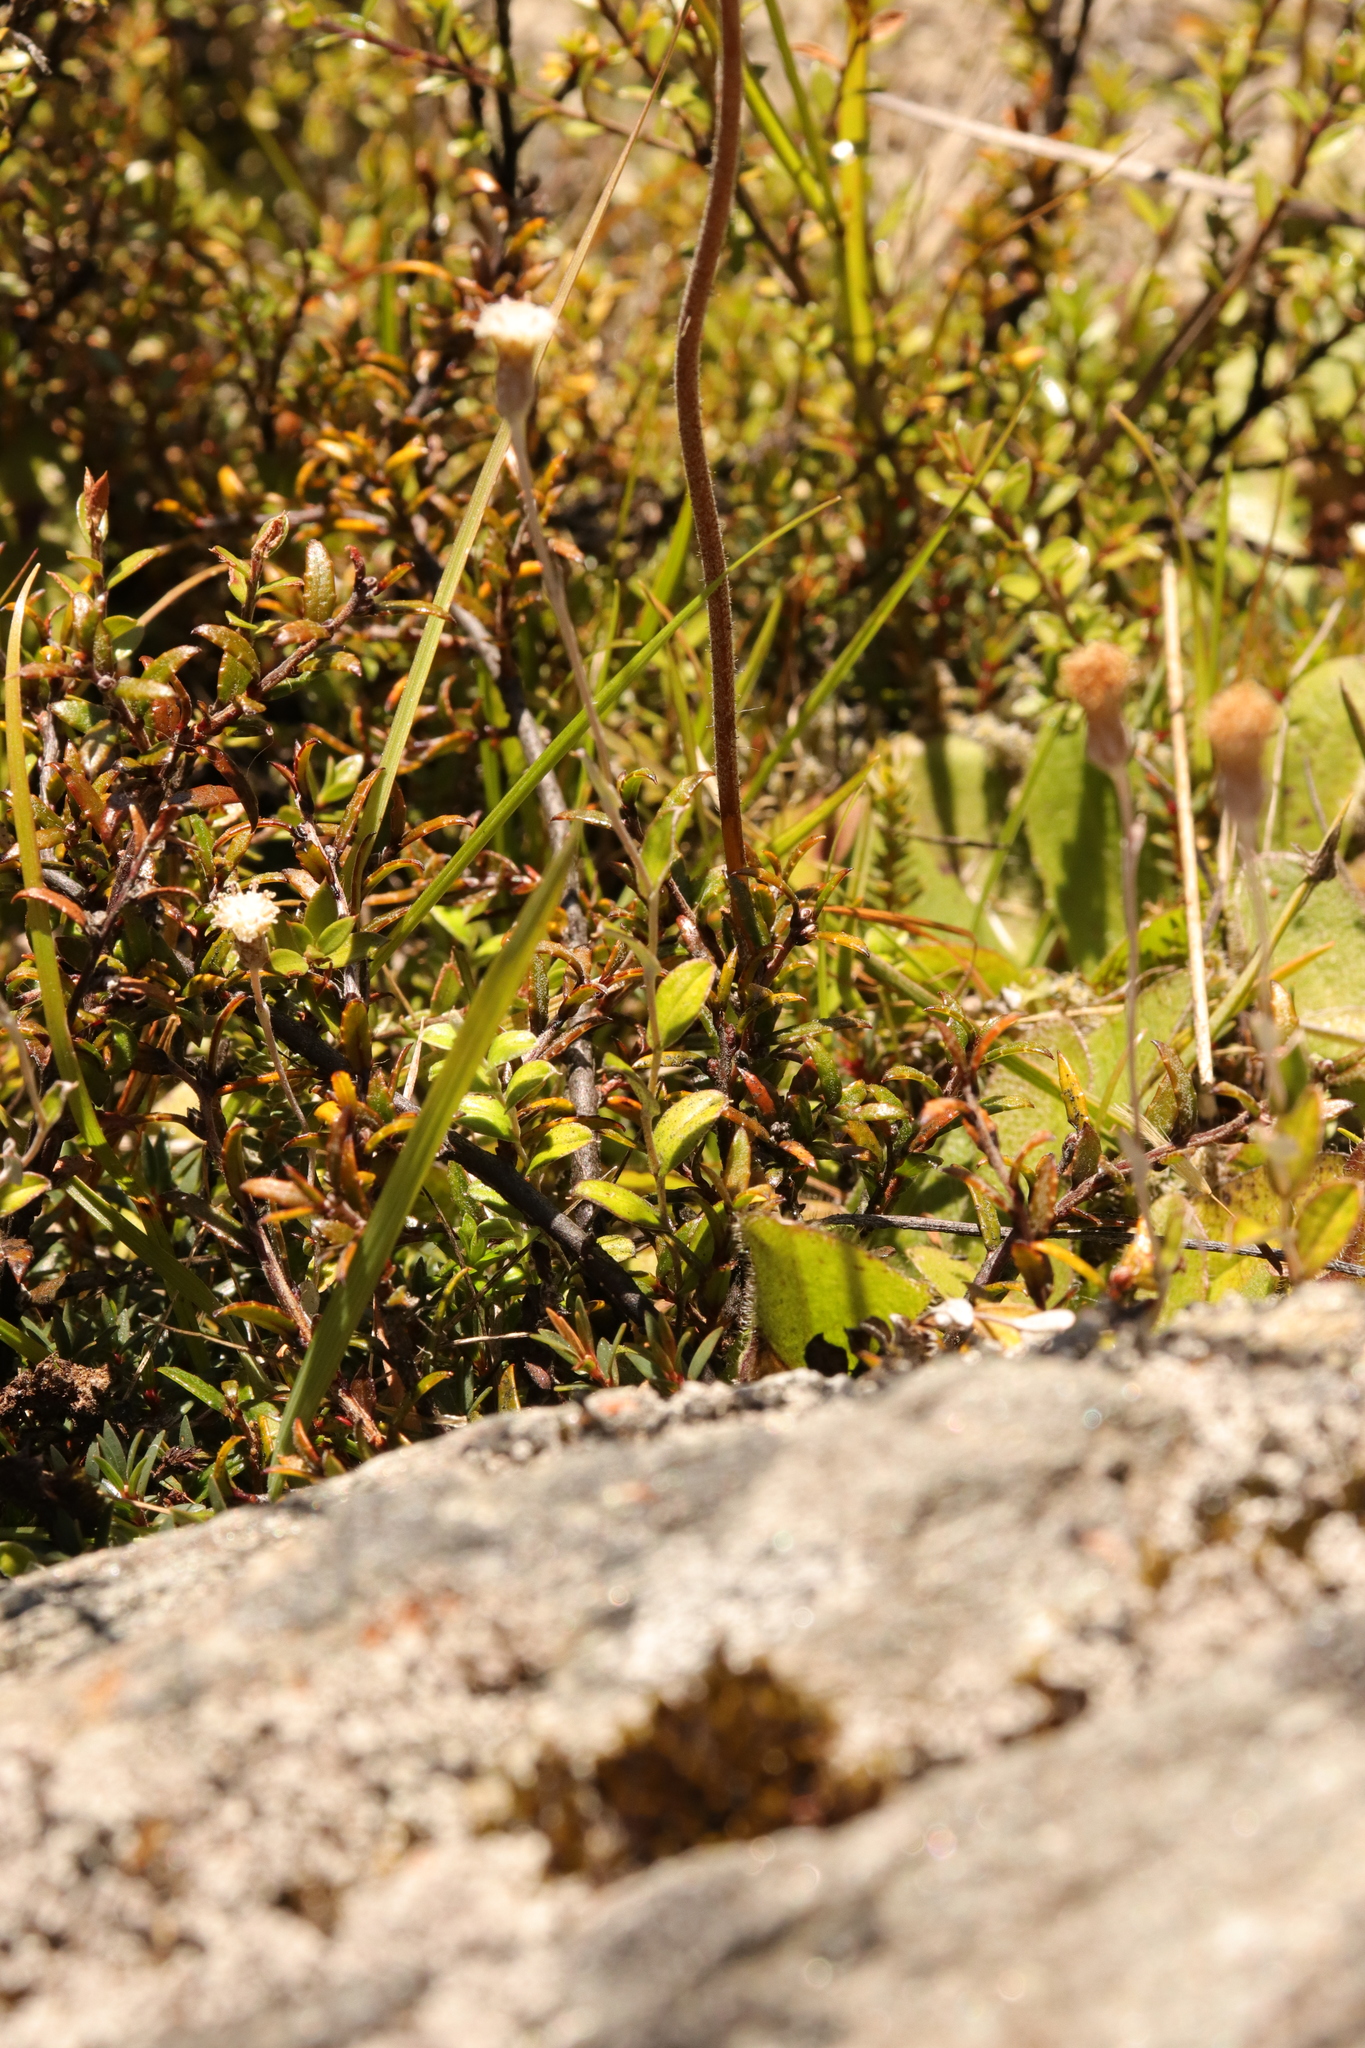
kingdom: Plantae
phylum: Tracheophyta
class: Magnoliopsida
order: Asterales
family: Asteraceae
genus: Helichrysum
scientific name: Helichrysum filicaule
